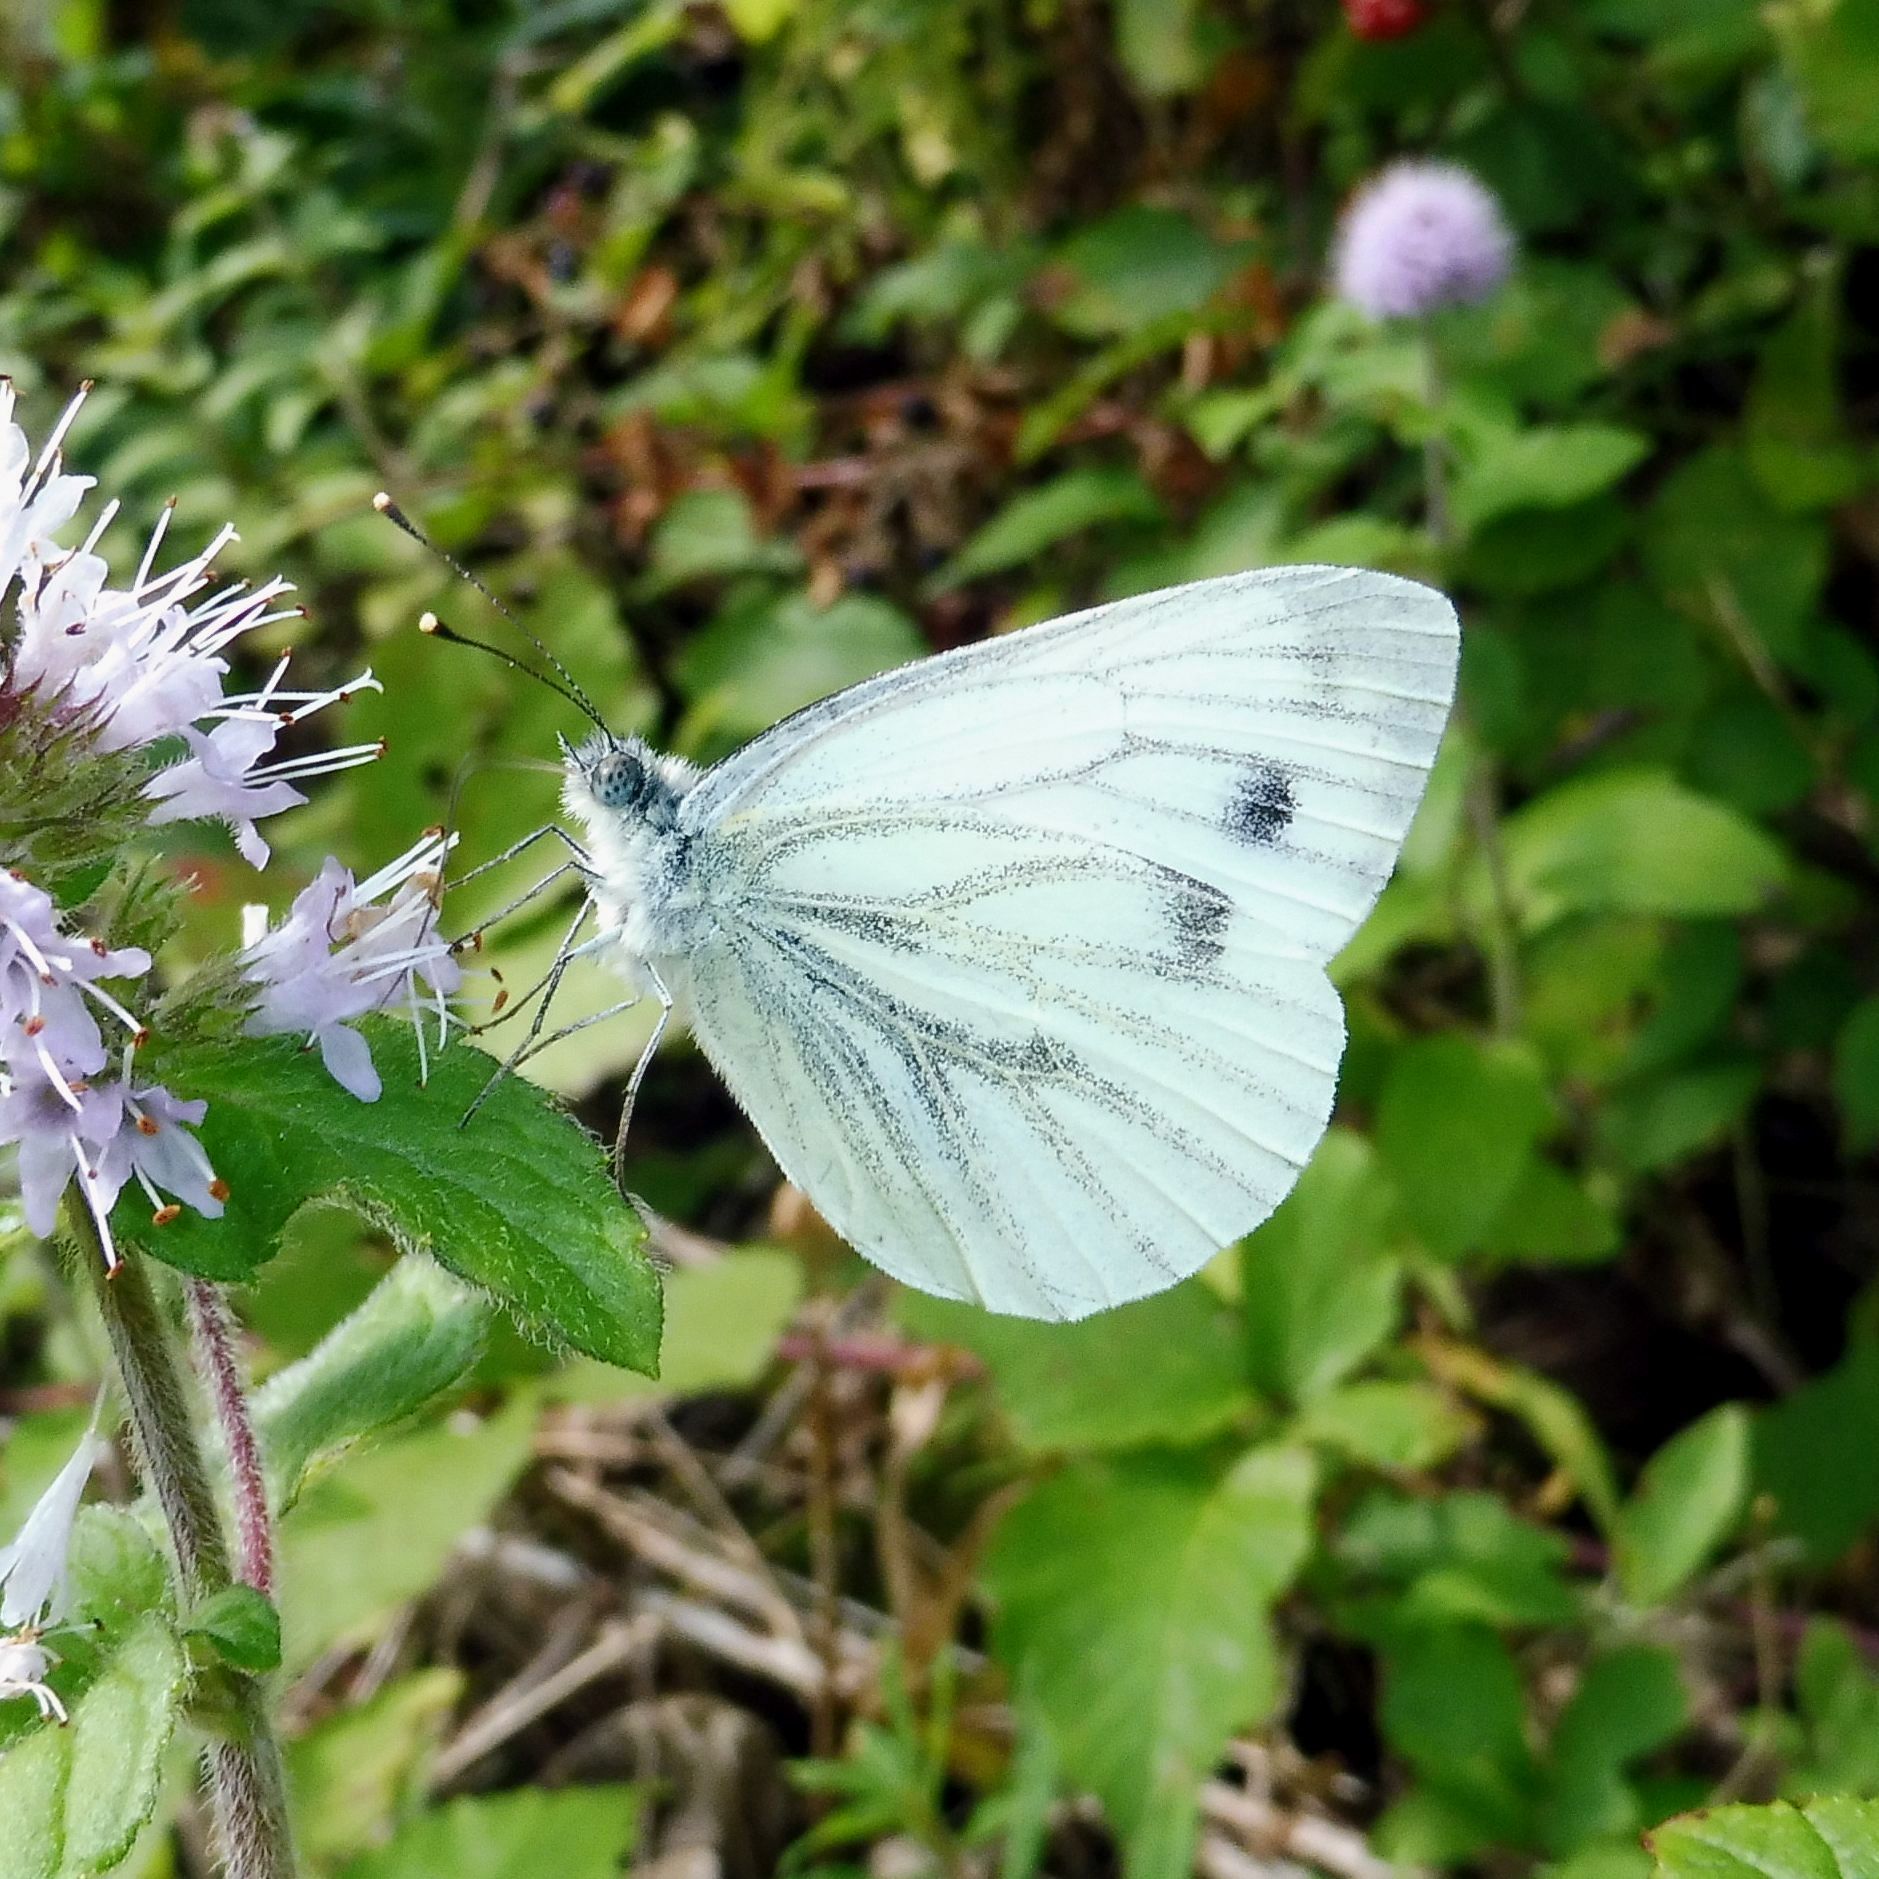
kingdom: Animalia
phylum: Arthropoda
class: Insecta
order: Lepidoptera
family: Pieridae
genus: Pieris
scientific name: Pieris napi
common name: Green-veined white
